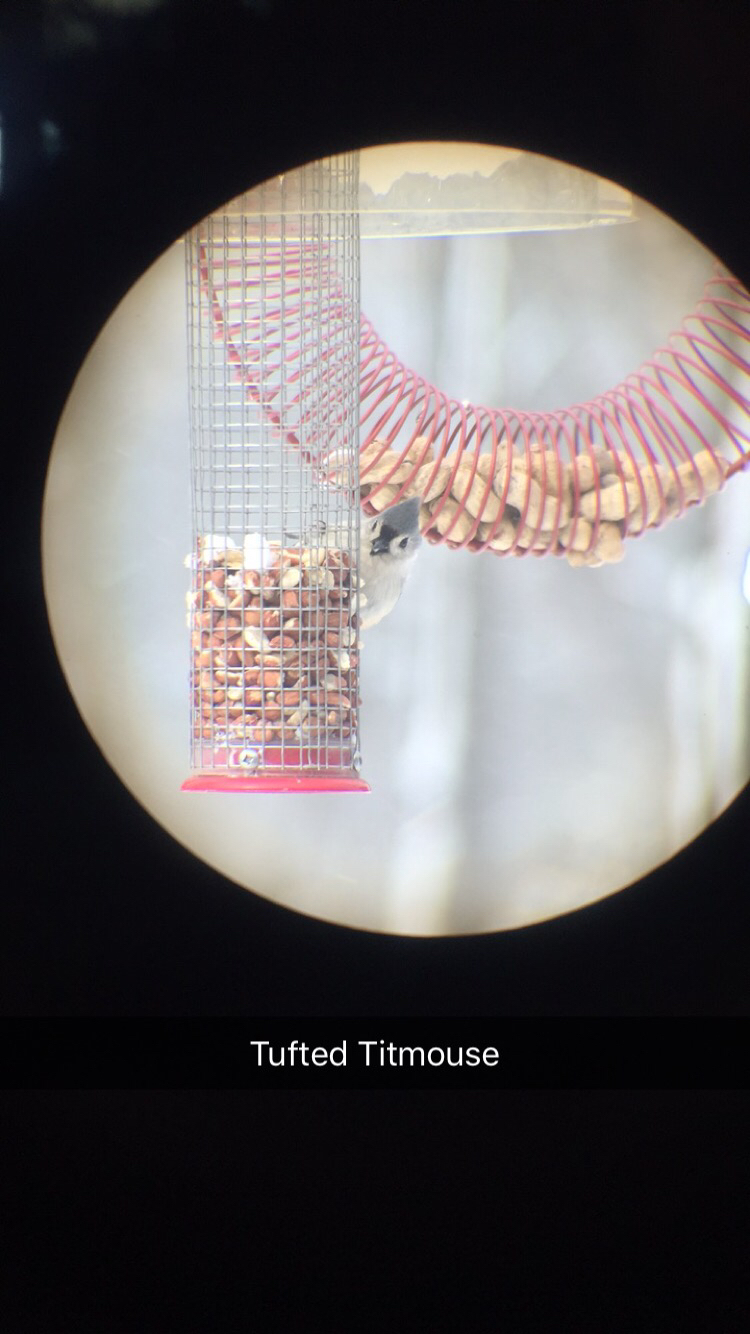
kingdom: Animalia
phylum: Chordata
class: Aves
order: Passeriformes
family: Paridae
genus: Baeolophus
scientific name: Baeolophus bicolor
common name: Tufted titmouse
